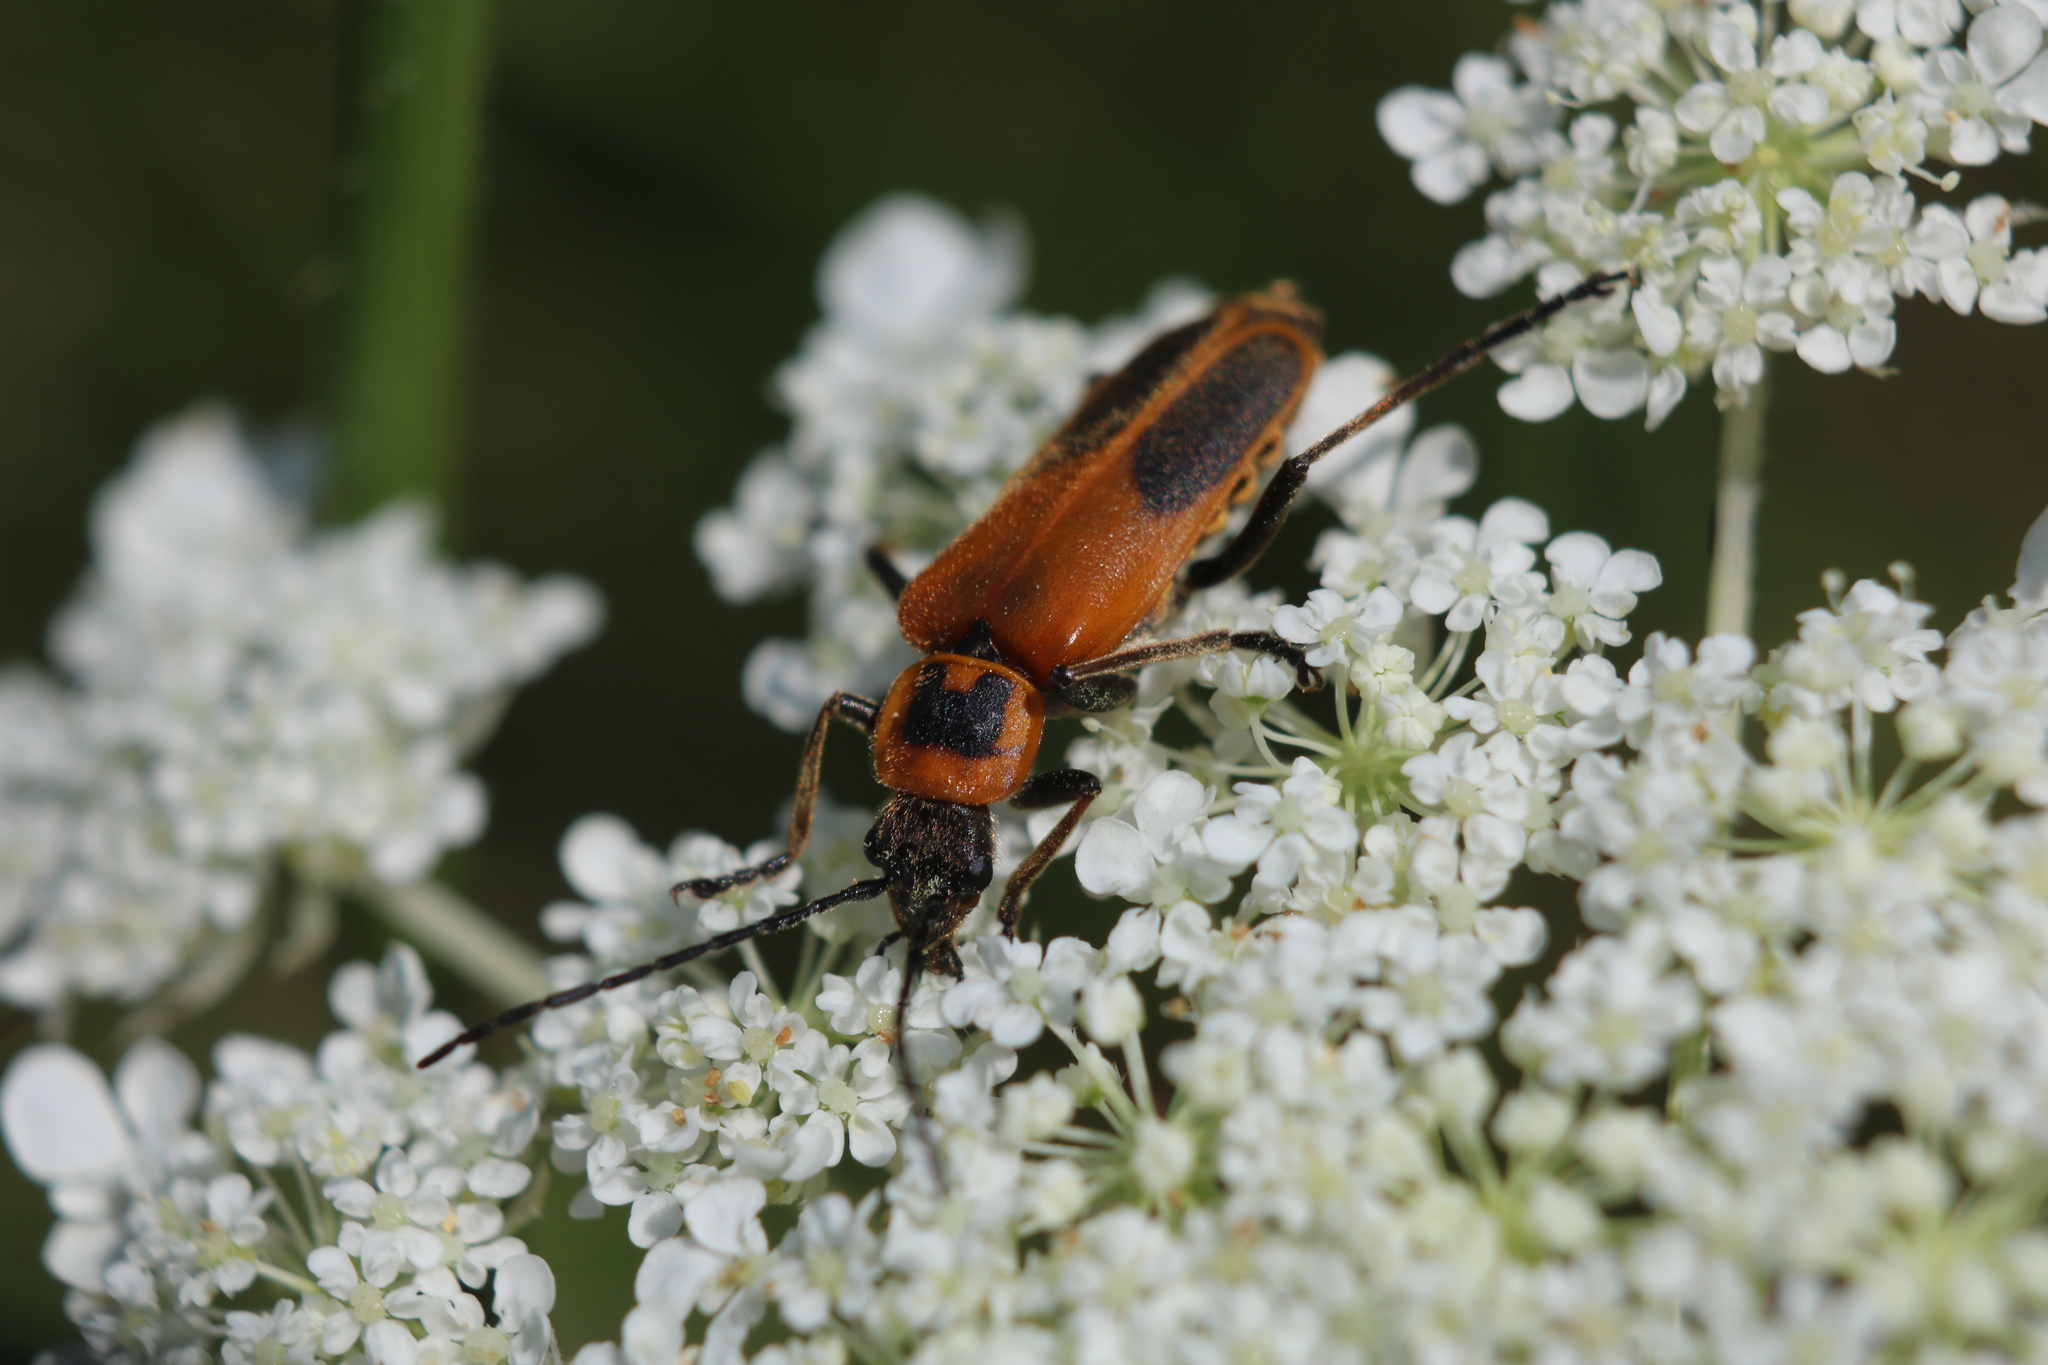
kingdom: Animalia
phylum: Arthropoda
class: Insecta
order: Coleoptera
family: Cantharidae
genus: Chauliognathus
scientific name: Chauliognathus pensylvanicus
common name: Goldenrod soldier beetle
